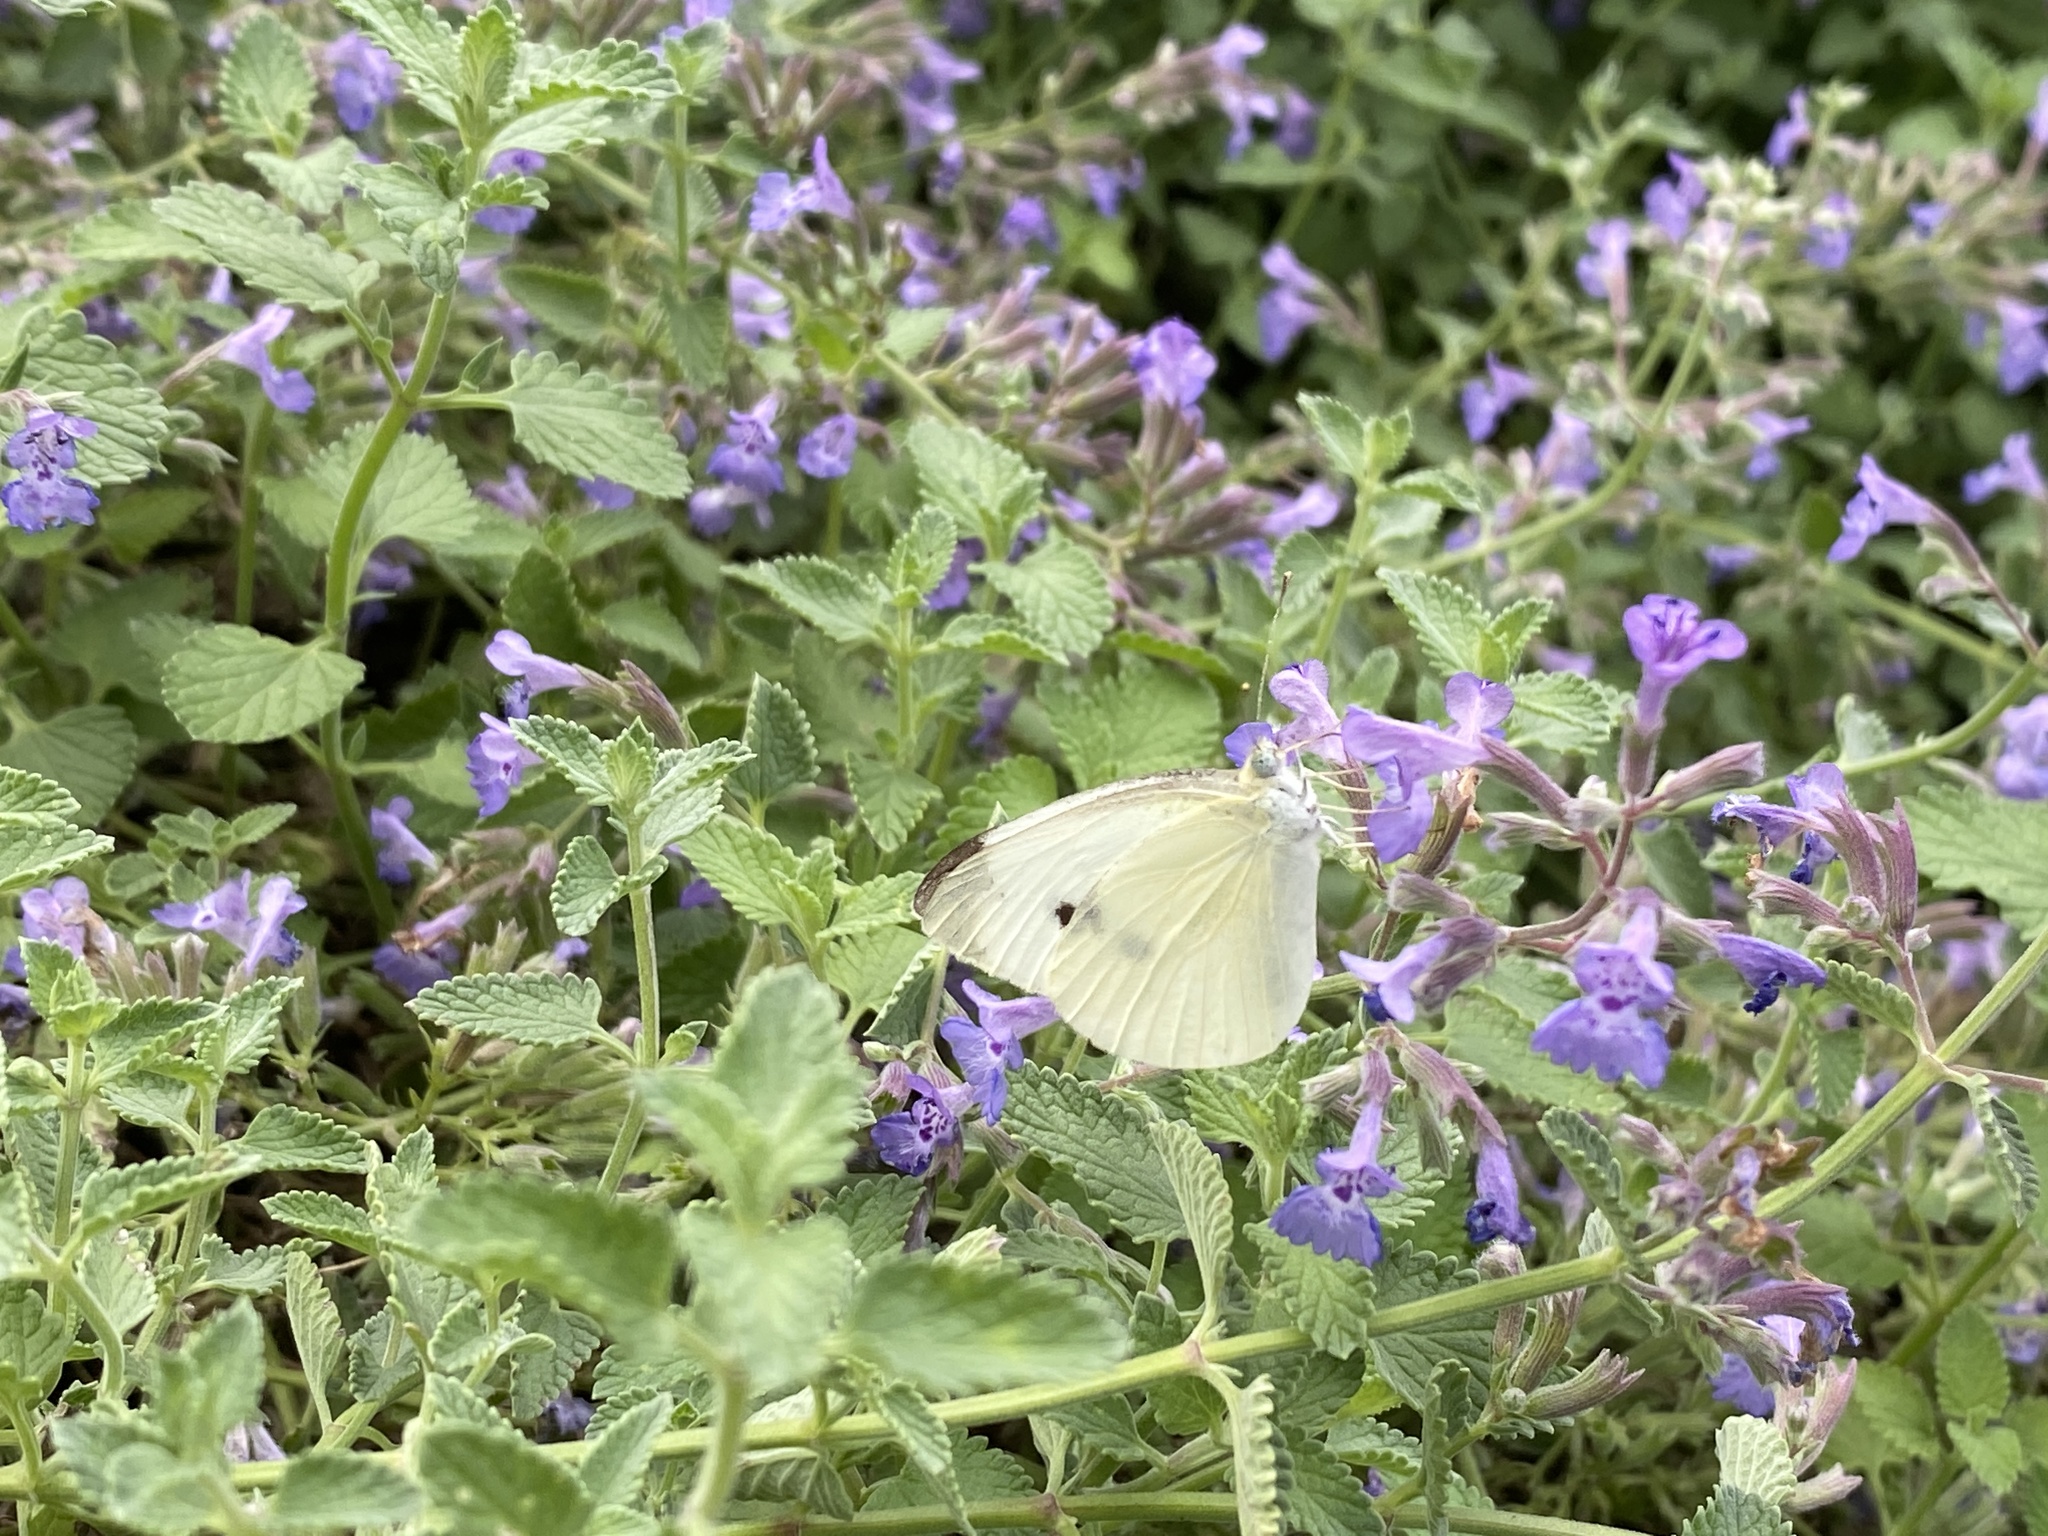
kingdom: Animalia
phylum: Arthropoda
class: Insecta
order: Lepidoptera
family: Pieridae
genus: Pieris
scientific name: Pieris rapae
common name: Small white
